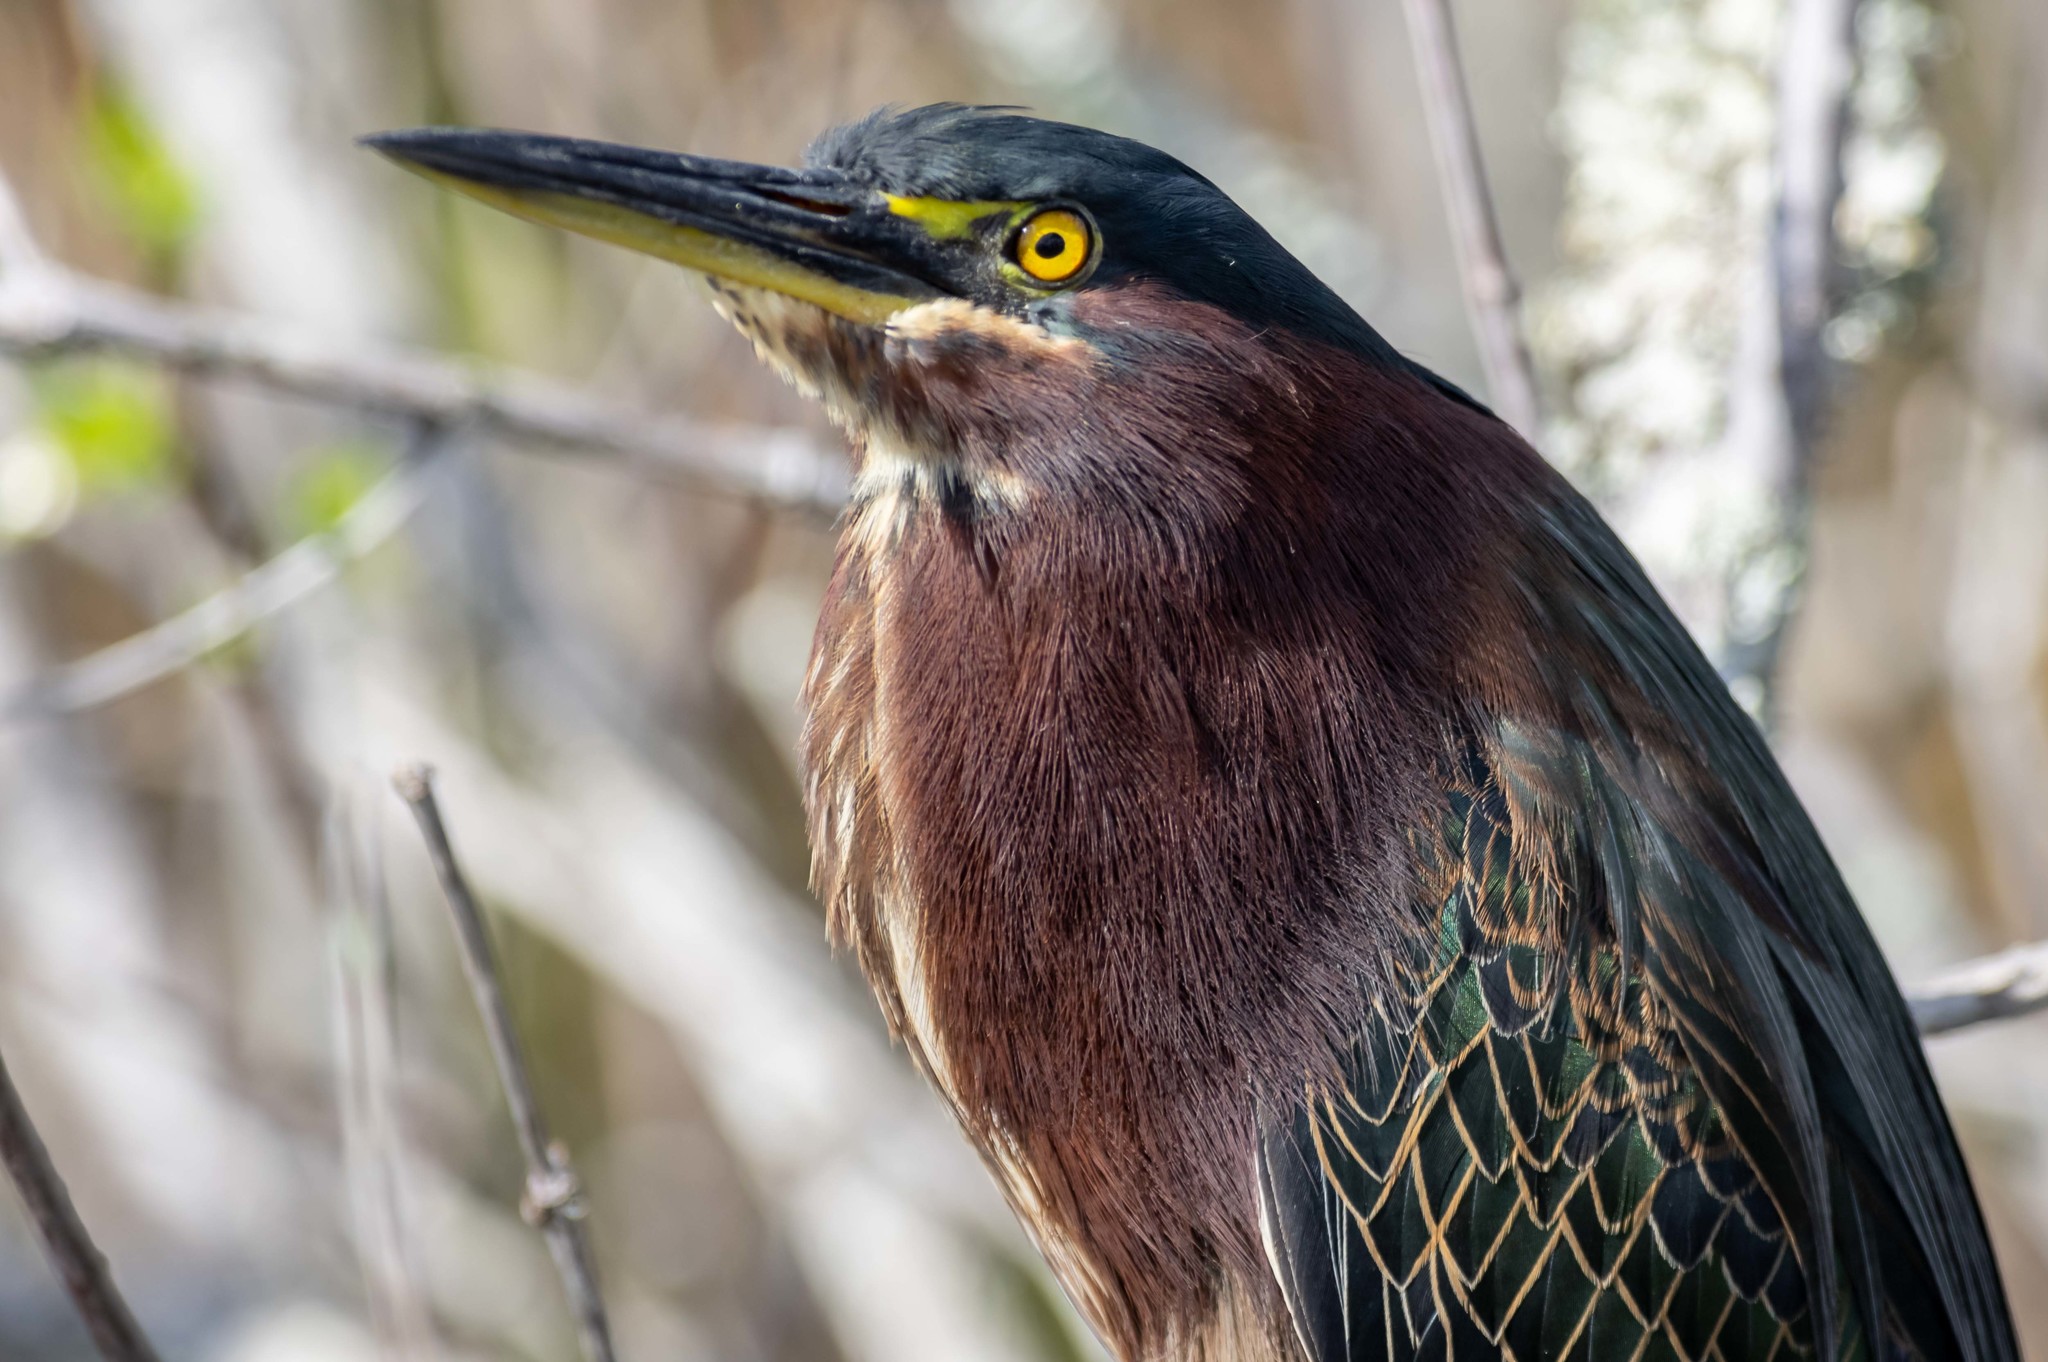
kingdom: Animalia
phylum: Chordata
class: Aves
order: Pelecaniformes
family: Ardeidae
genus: Butorides
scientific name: Butorides virescens
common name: Green heron
